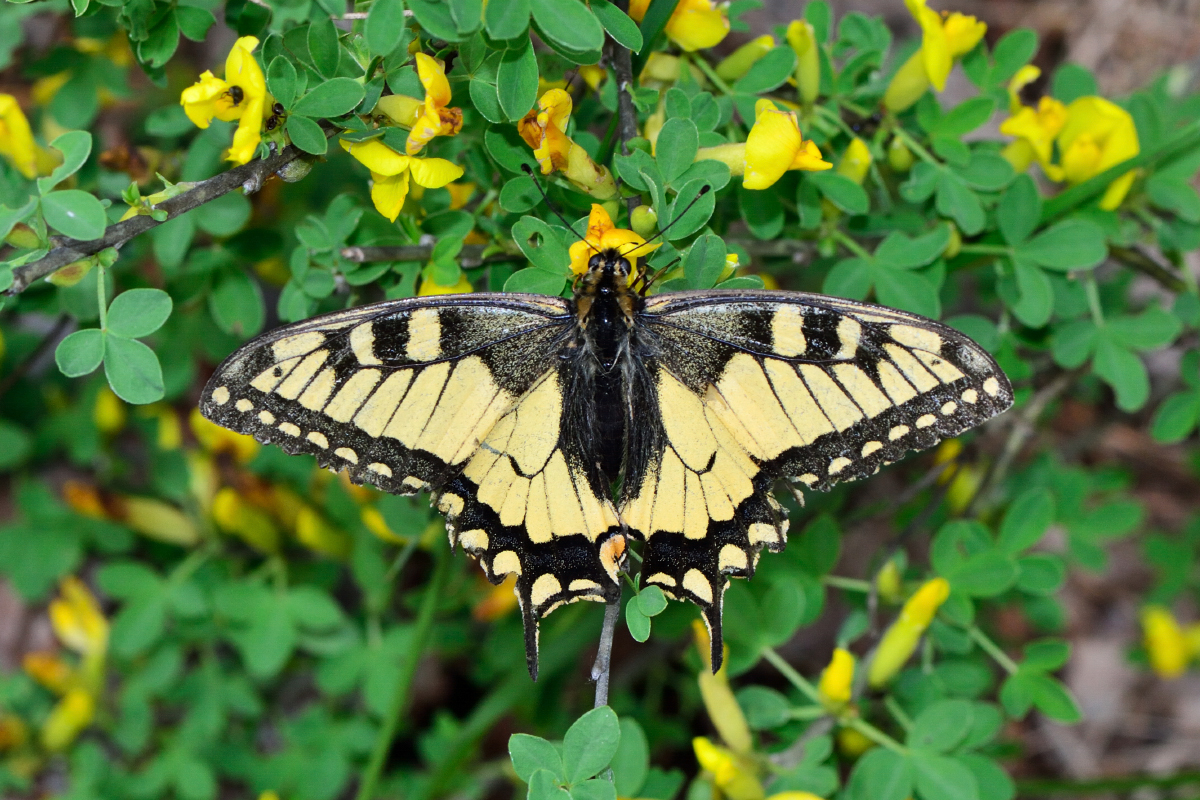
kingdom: Animalia
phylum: Arthropoda
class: Insecta
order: Lepidoptera
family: Papilionidae
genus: Papilio
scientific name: Papilio machaon
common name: Swallowtail
